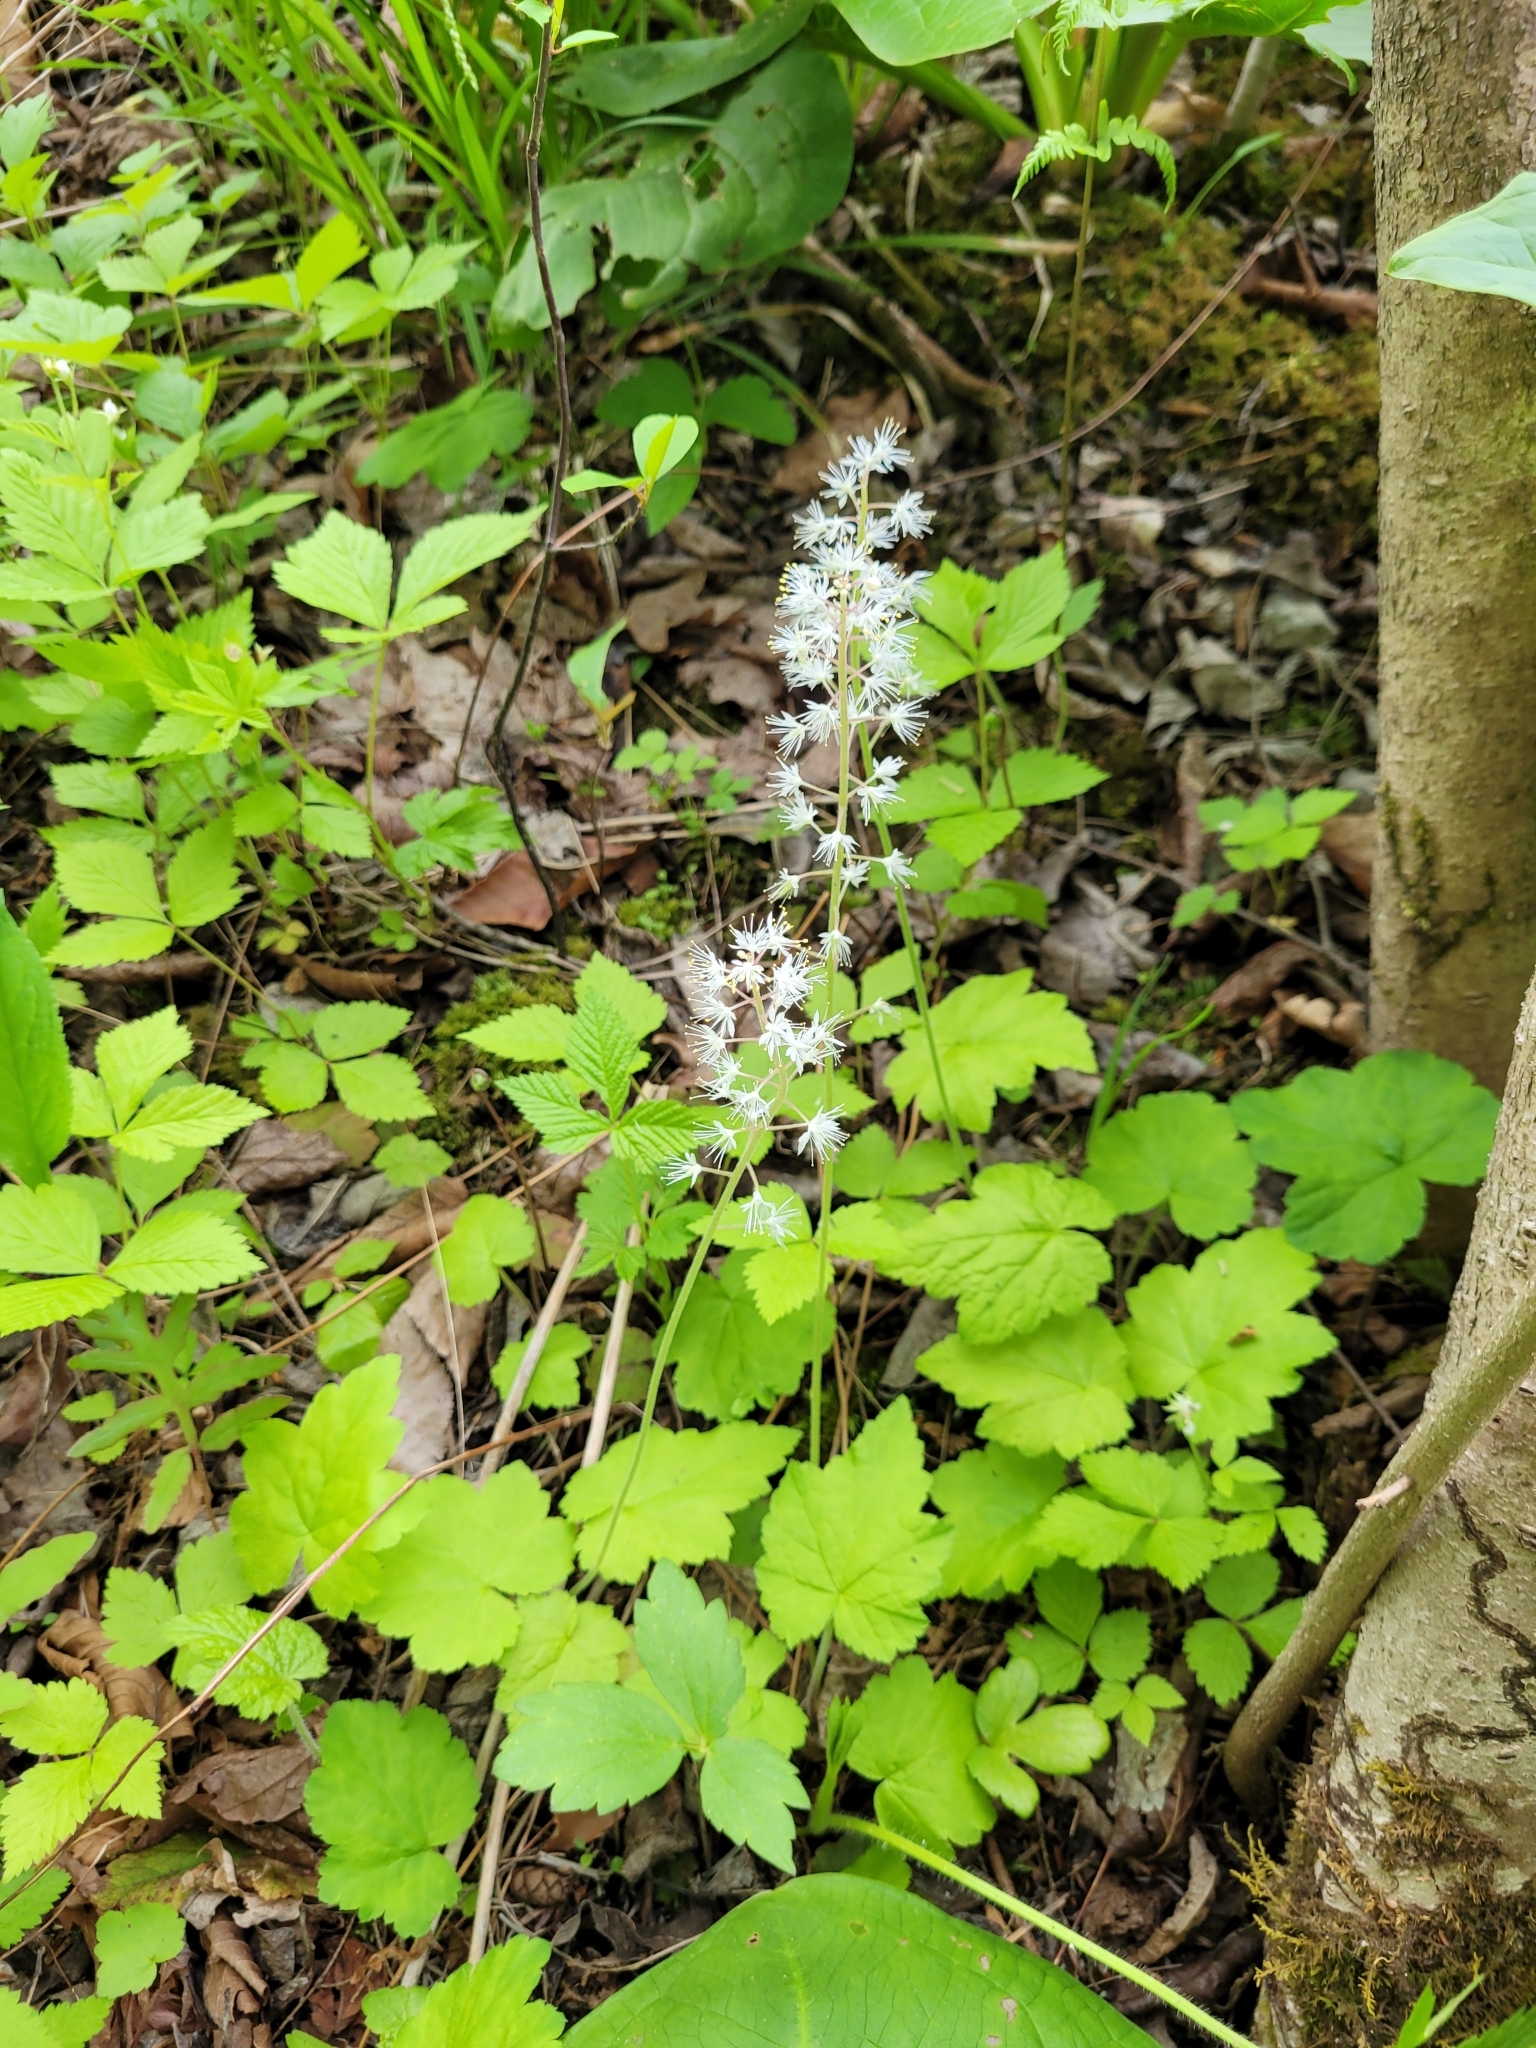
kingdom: Plantae
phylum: Tracheophyta
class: Magnoliopsida
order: Saxifragales
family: Saxifragaceae
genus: Tiarella
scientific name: Tiarella stolonifera
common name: Stoloniferous foamflower
